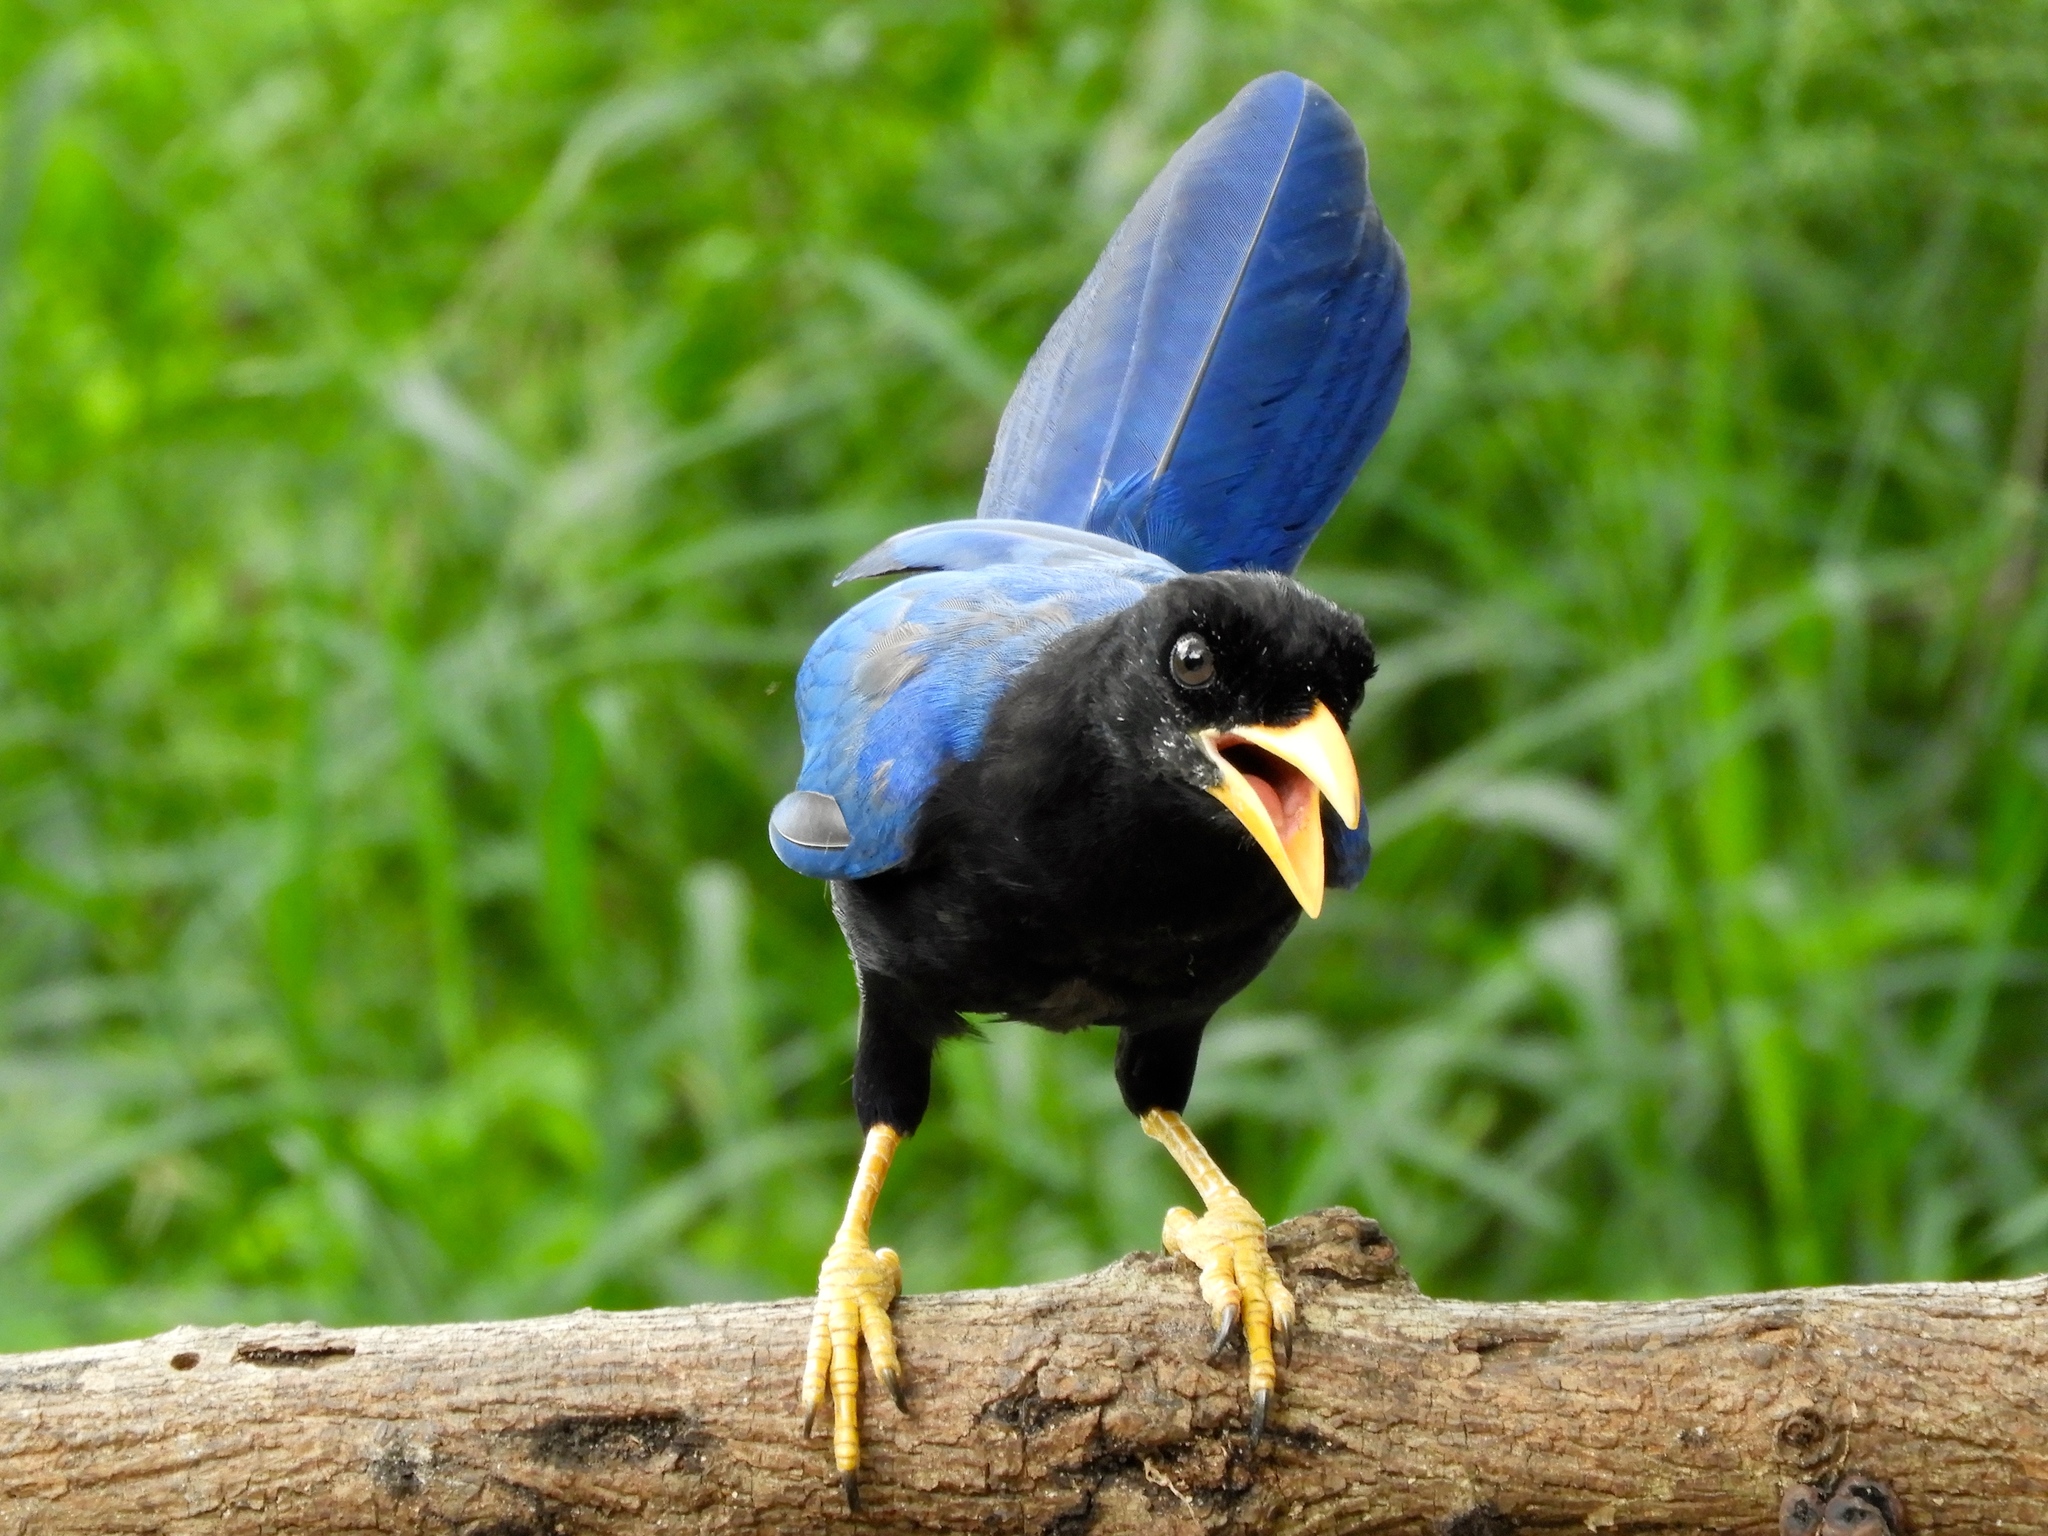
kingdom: Animalia
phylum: Chordata
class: Aves
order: Passeriformes
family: Corvidae
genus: Cyanocorax
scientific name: Cyanocorax beecheii
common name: Purplish-backed jay
